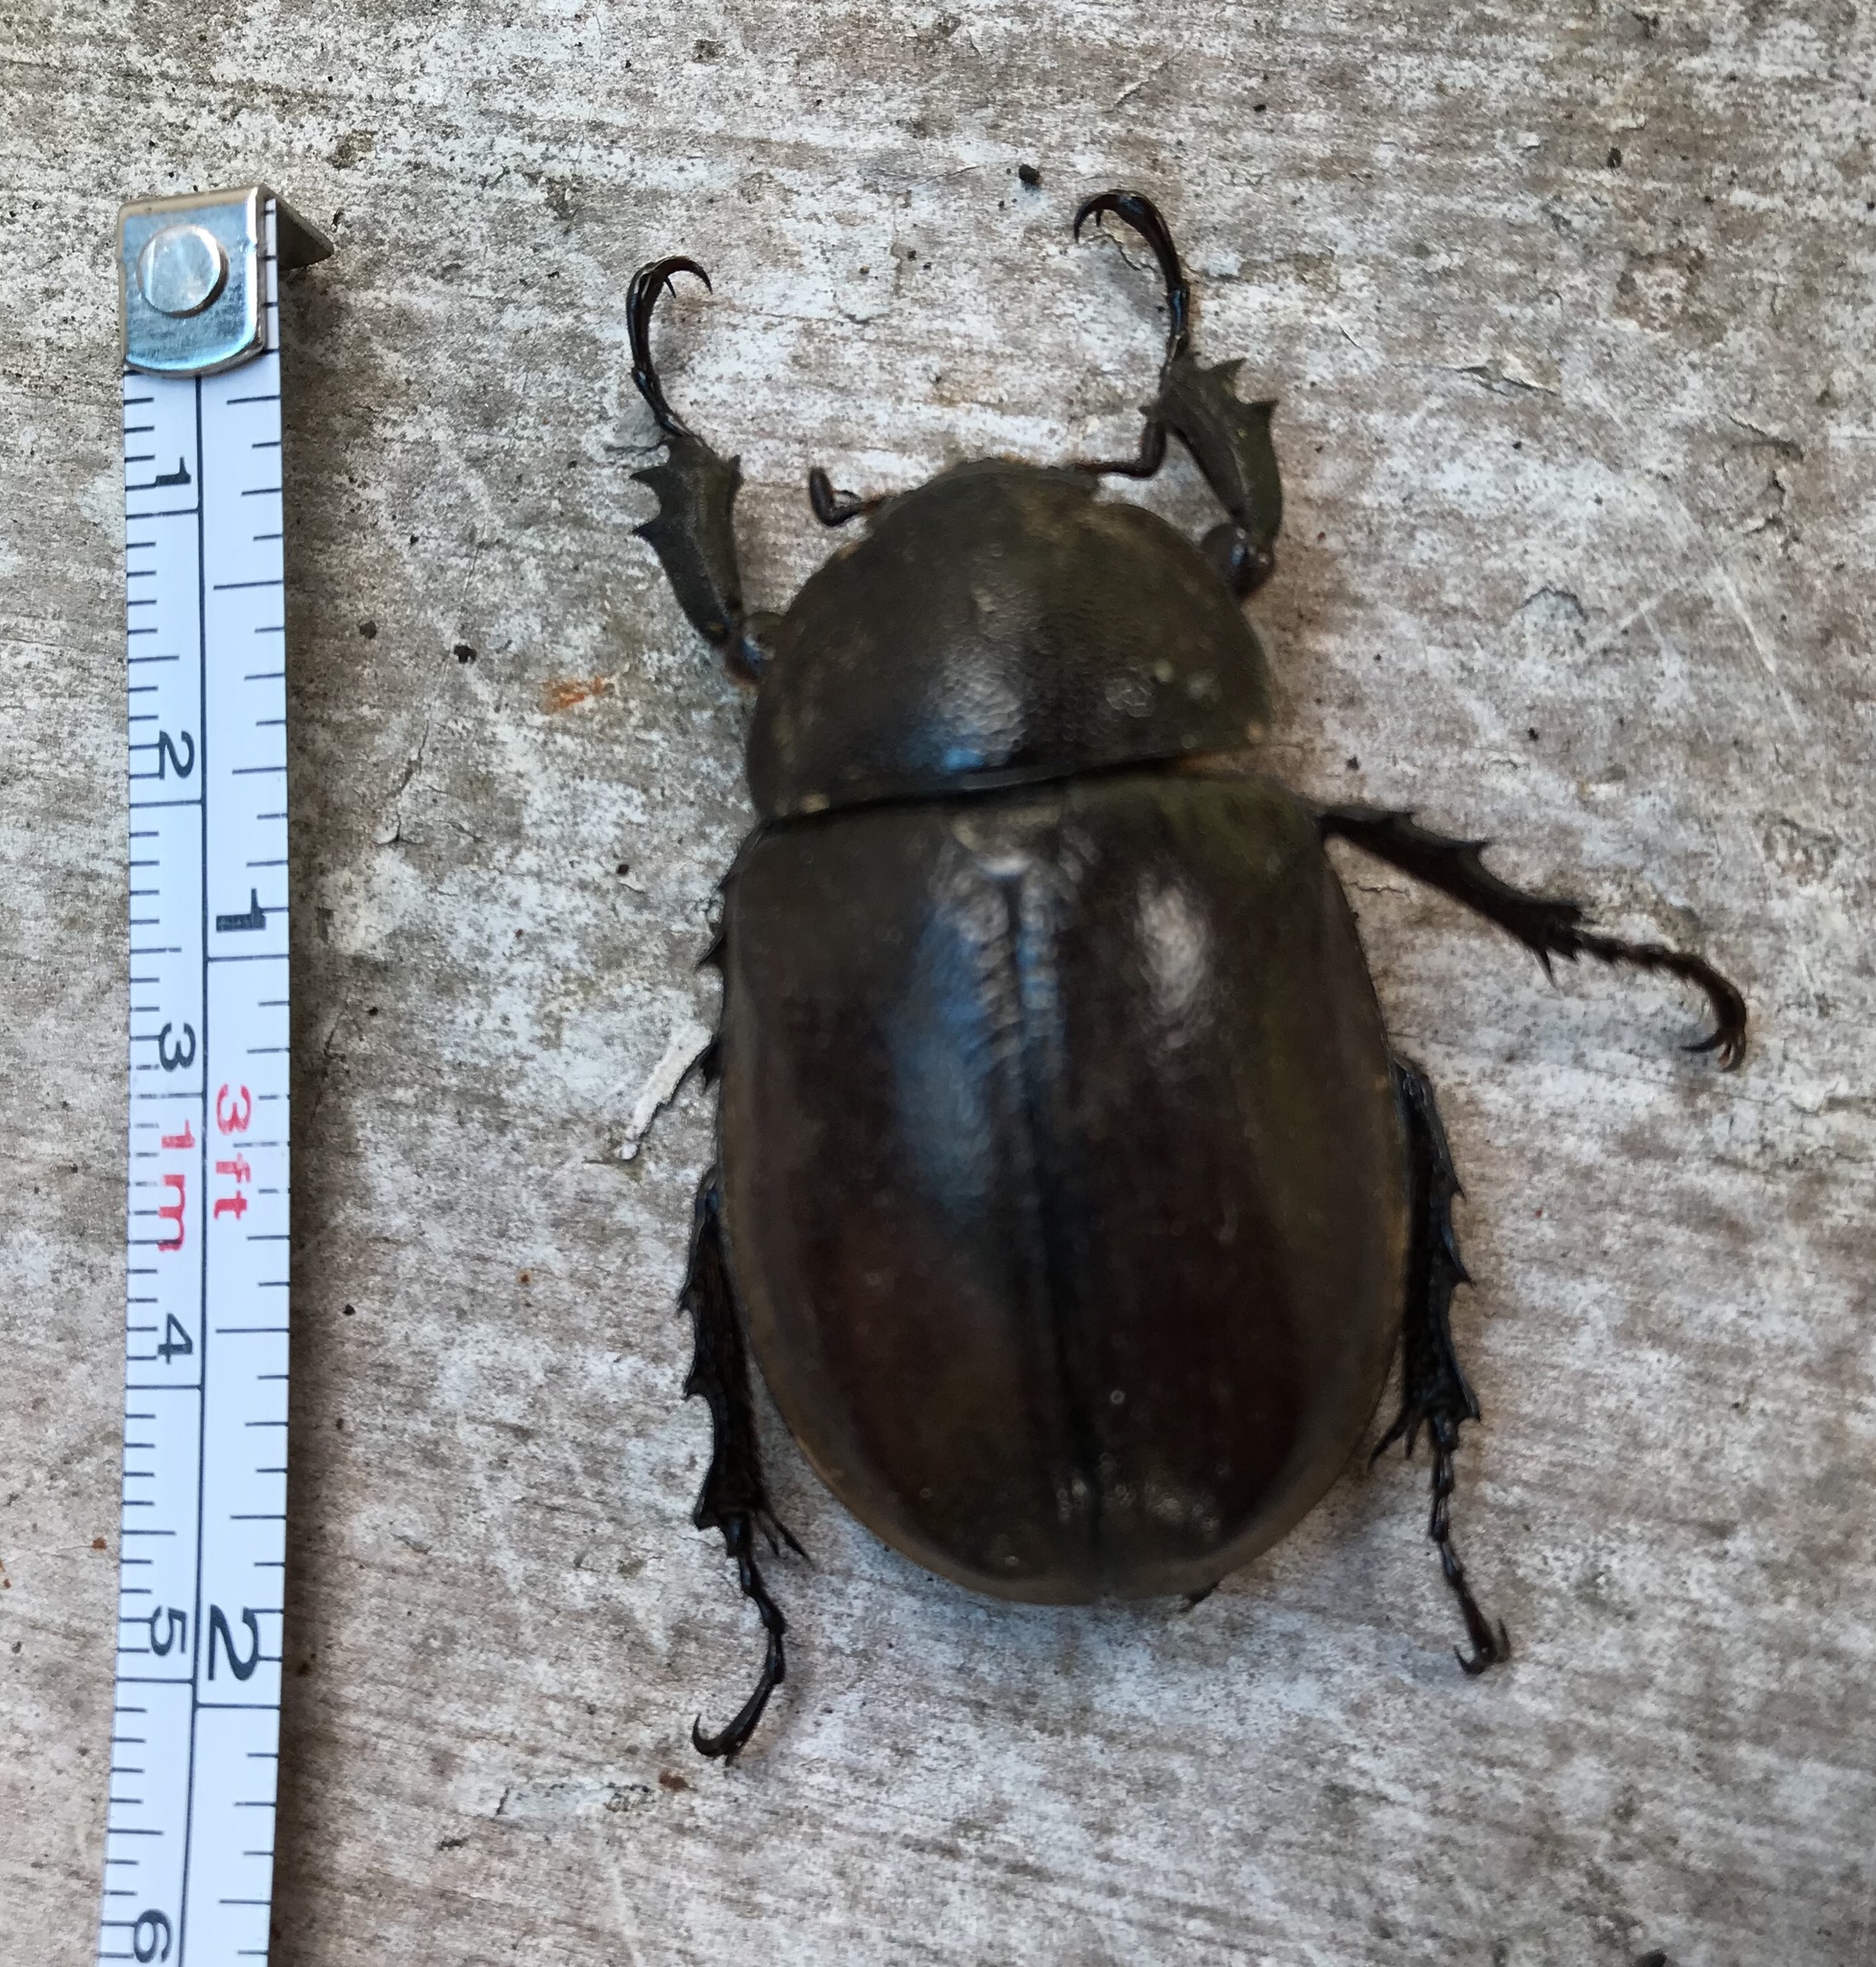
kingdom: Animalia
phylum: Arthropoda
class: Insecta
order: Coleoptera
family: Scarabaeidae
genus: Xylotrupes
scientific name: Xylotrupes gideon
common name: Elephant beetle
